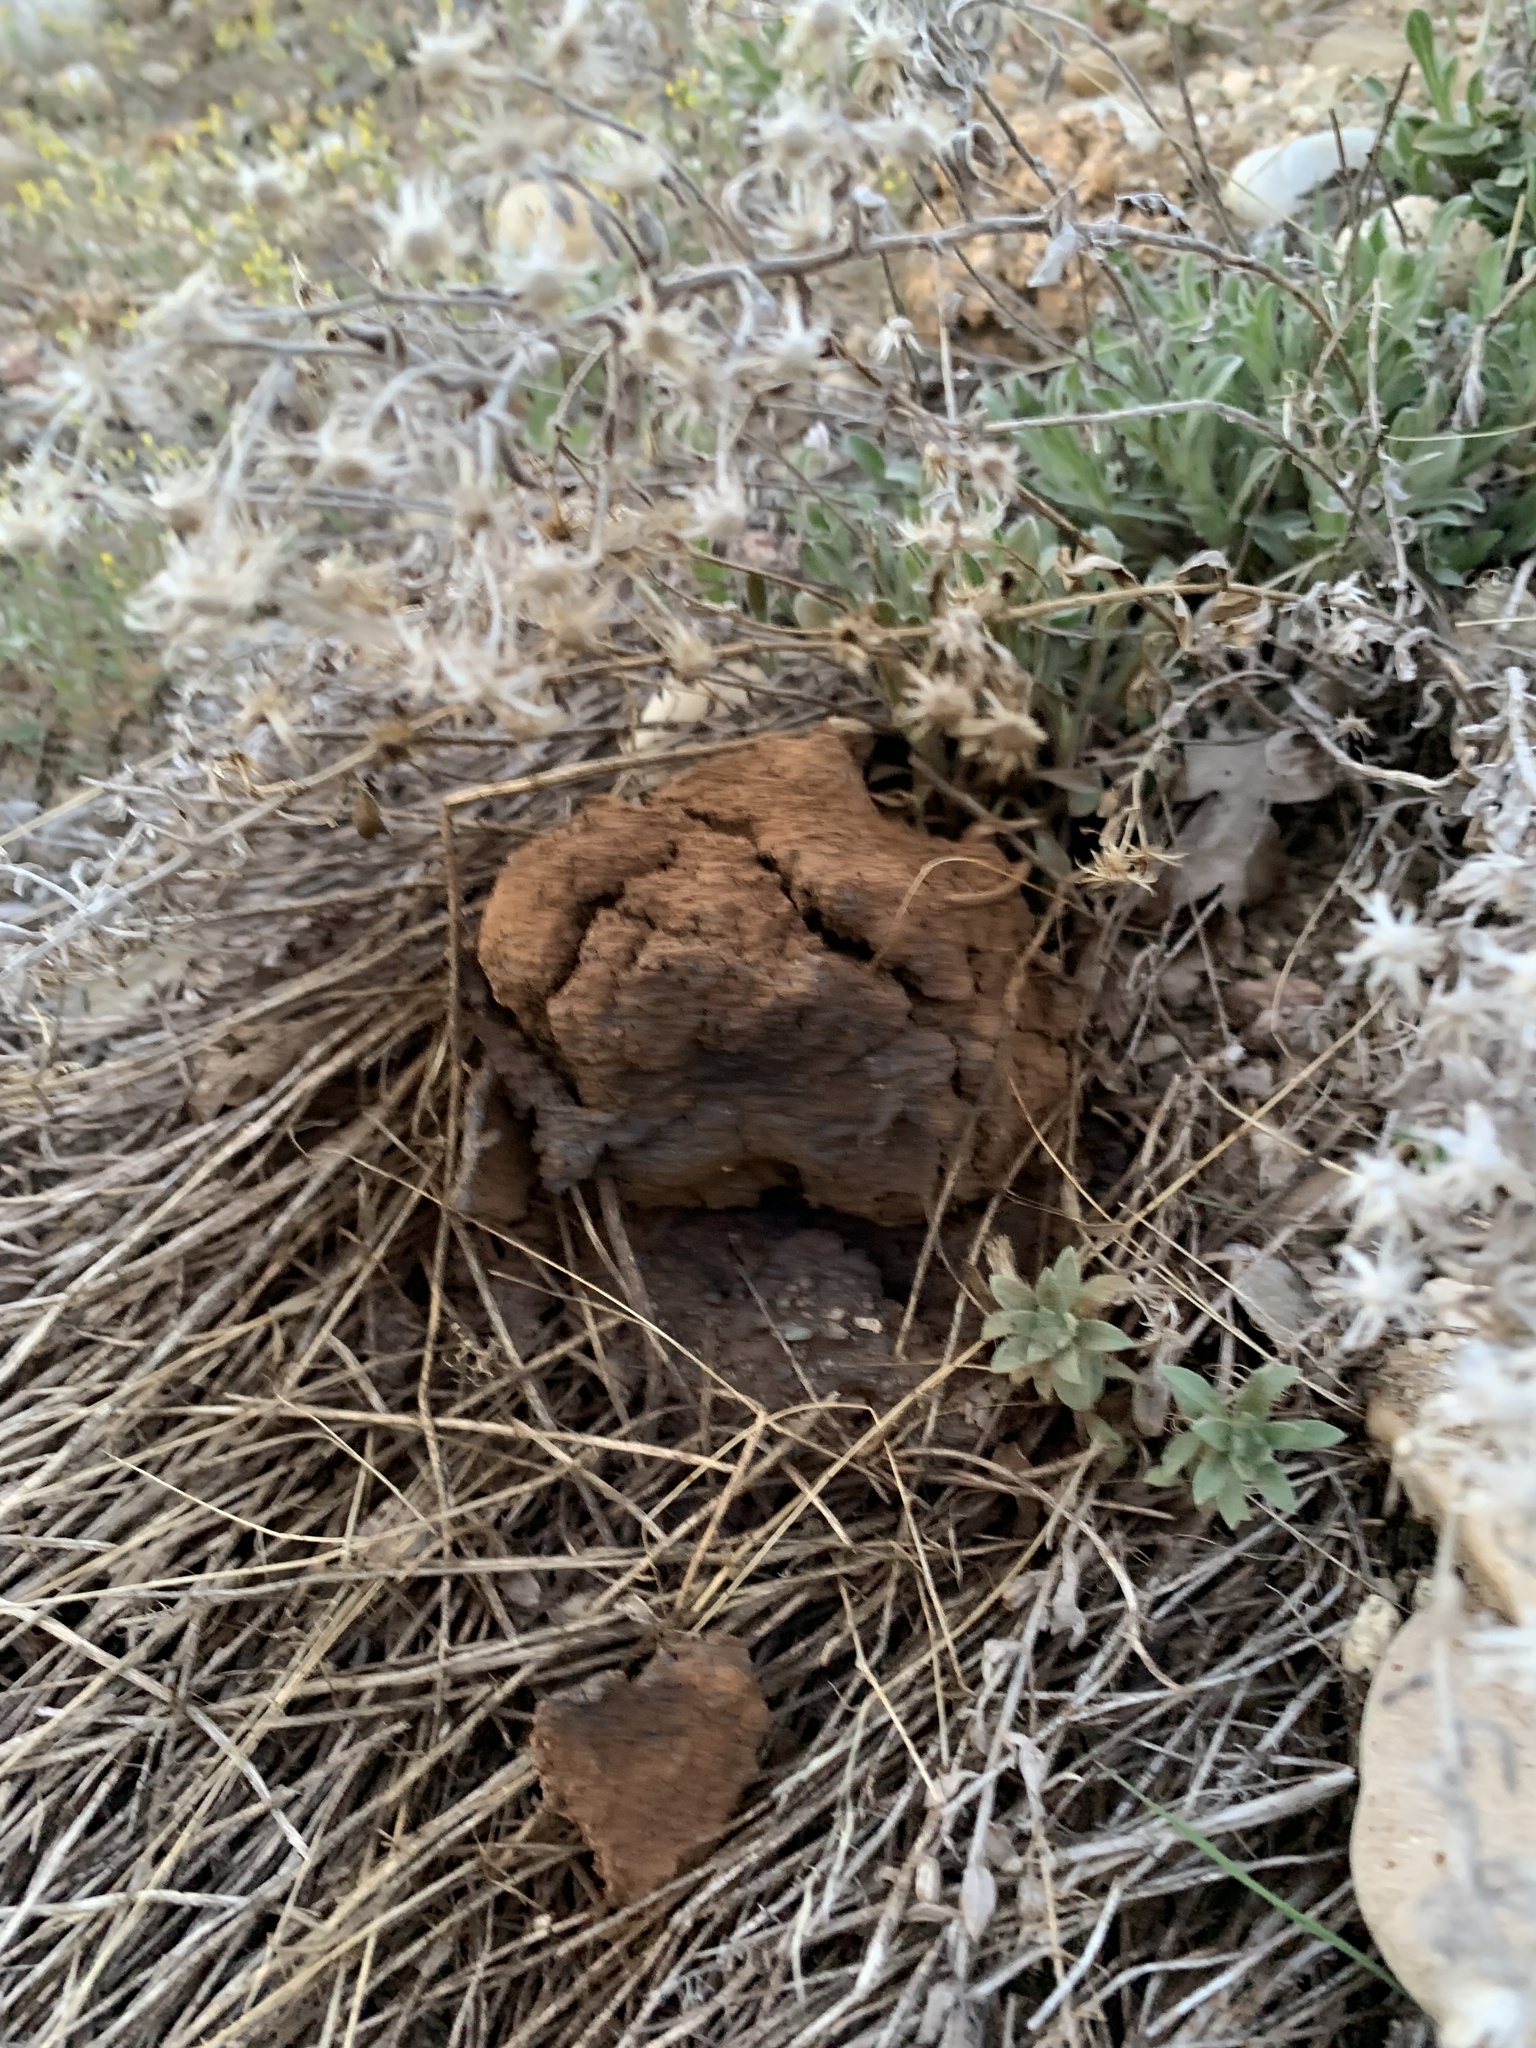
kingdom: Fungi
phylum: Basidiomycota
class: Agaricomycetes
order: Boletales
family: Sclerodermataceae
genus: Pisolithus
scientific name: Pisolithus tinctorius
